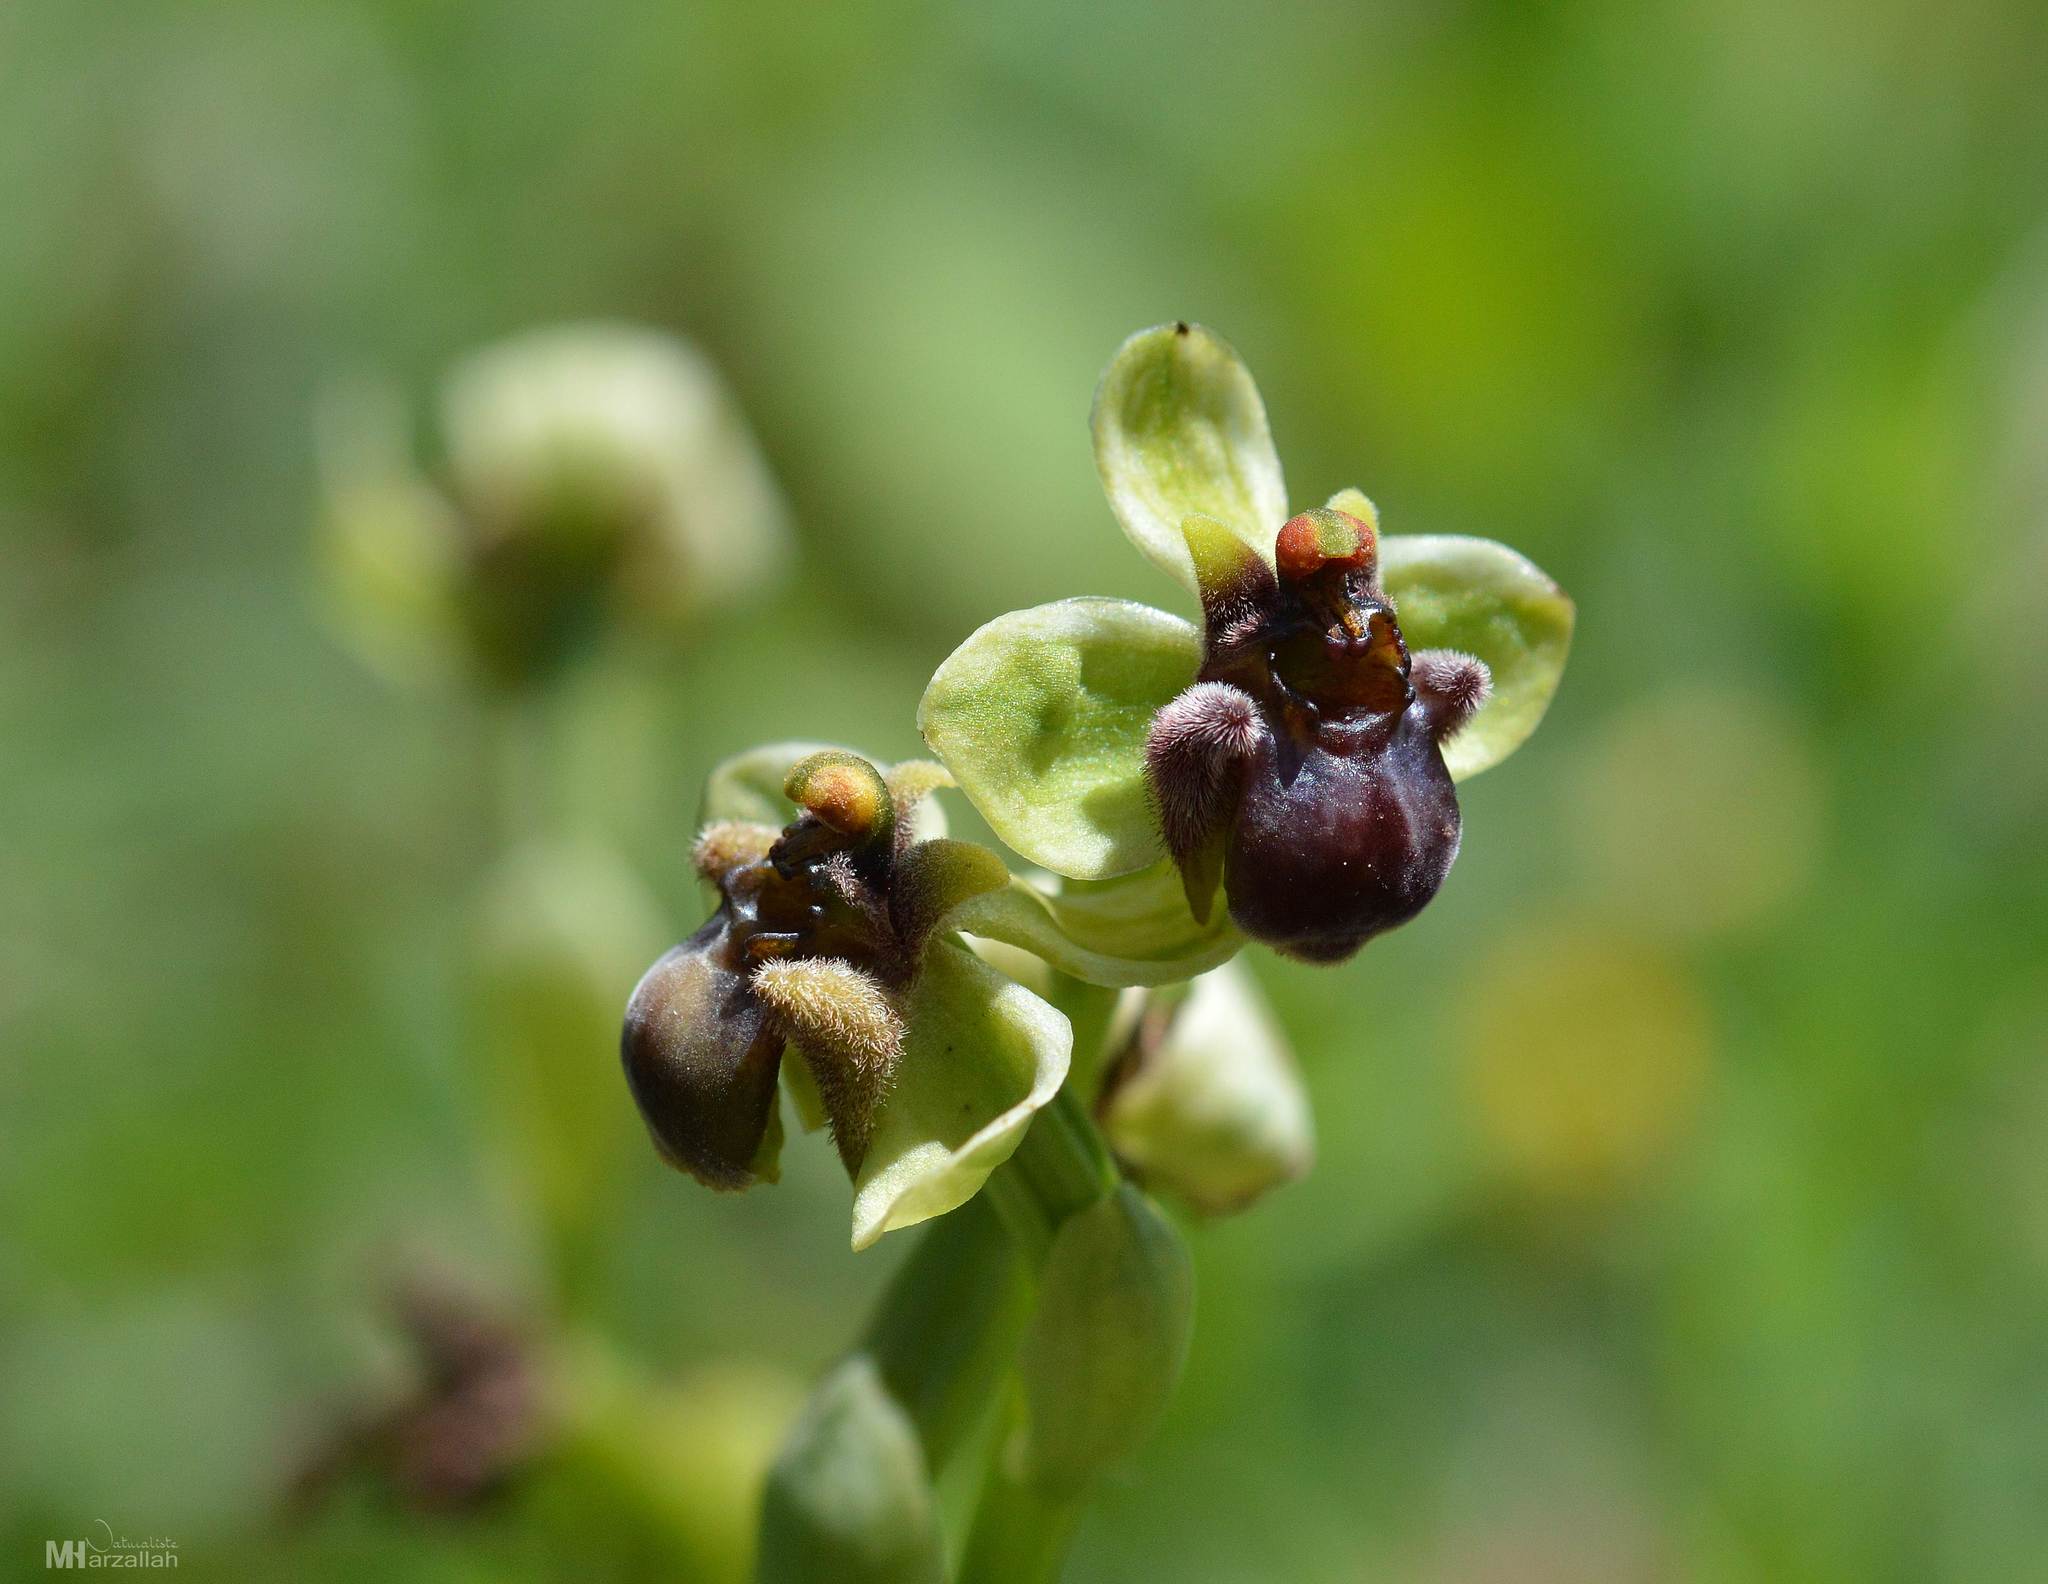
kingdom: Plantae
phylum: Tracheophyta
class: Liliopsida
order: Asparagales
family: Orchidaceae
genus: Ophrys
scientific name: Ophrys bombyliflora
